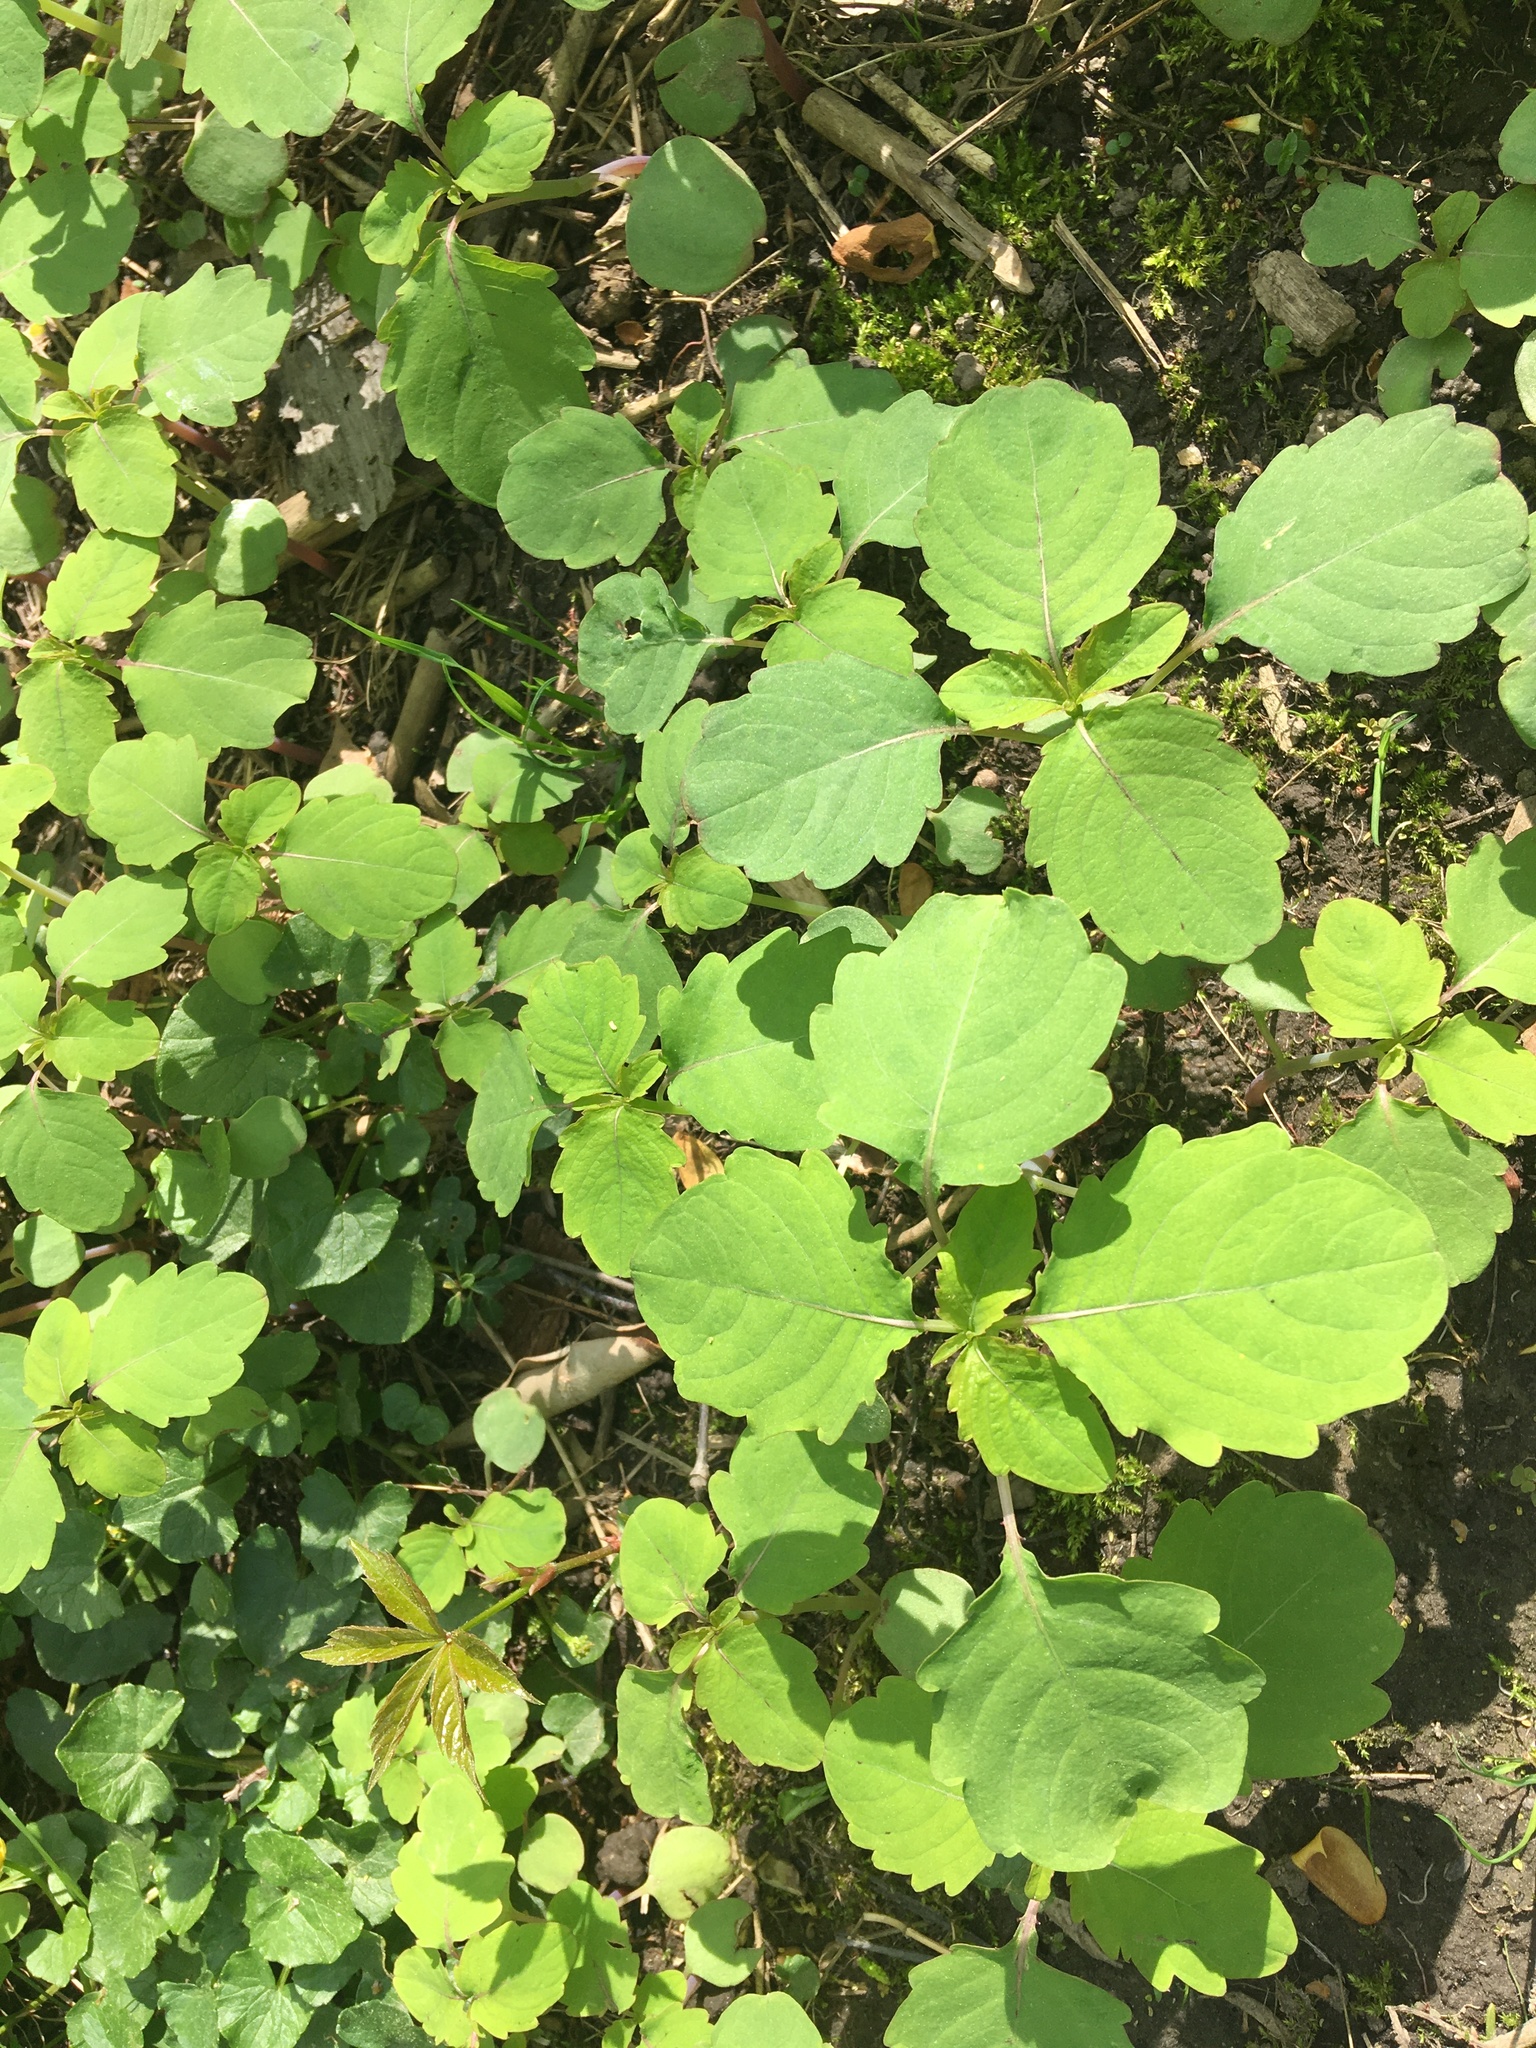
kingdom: Plantae
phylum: Tracheophyta
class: Magnoliopsida
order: Ericales
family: Balsaminaceae
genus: Impatiens
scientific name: Impatiens capensis
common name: Orange balsam
